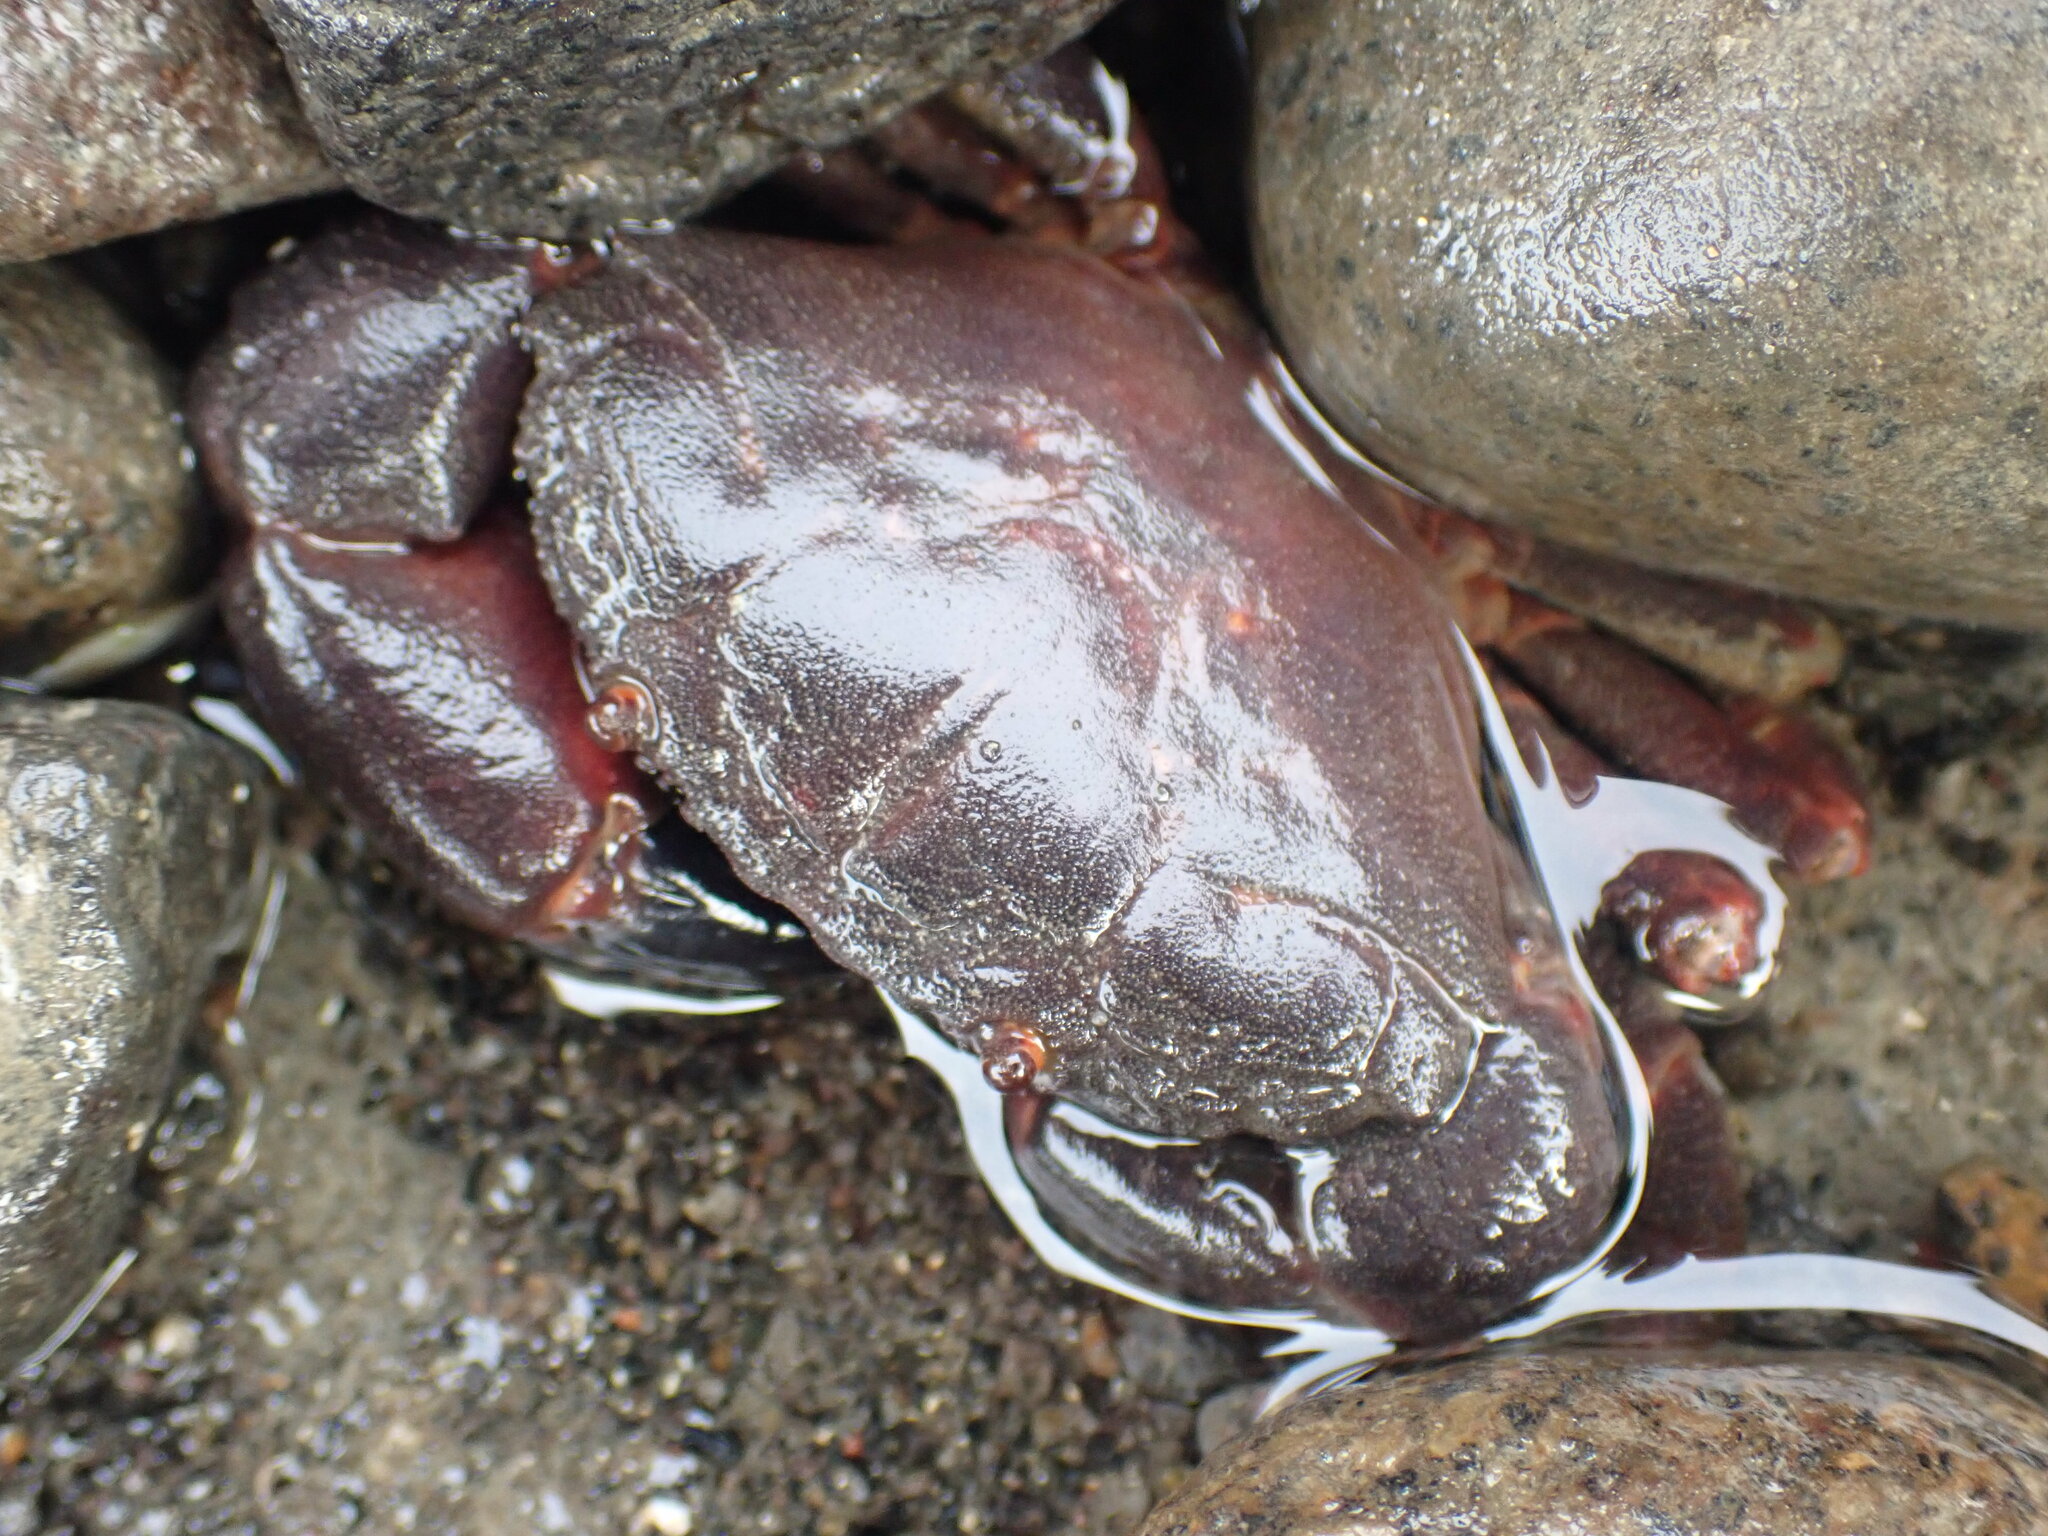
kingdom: Animalia
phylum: Arthropoda
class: Malacostraca
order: Decapoda
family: Oziidae
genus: Ozius
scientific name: Ozius deplanatus
